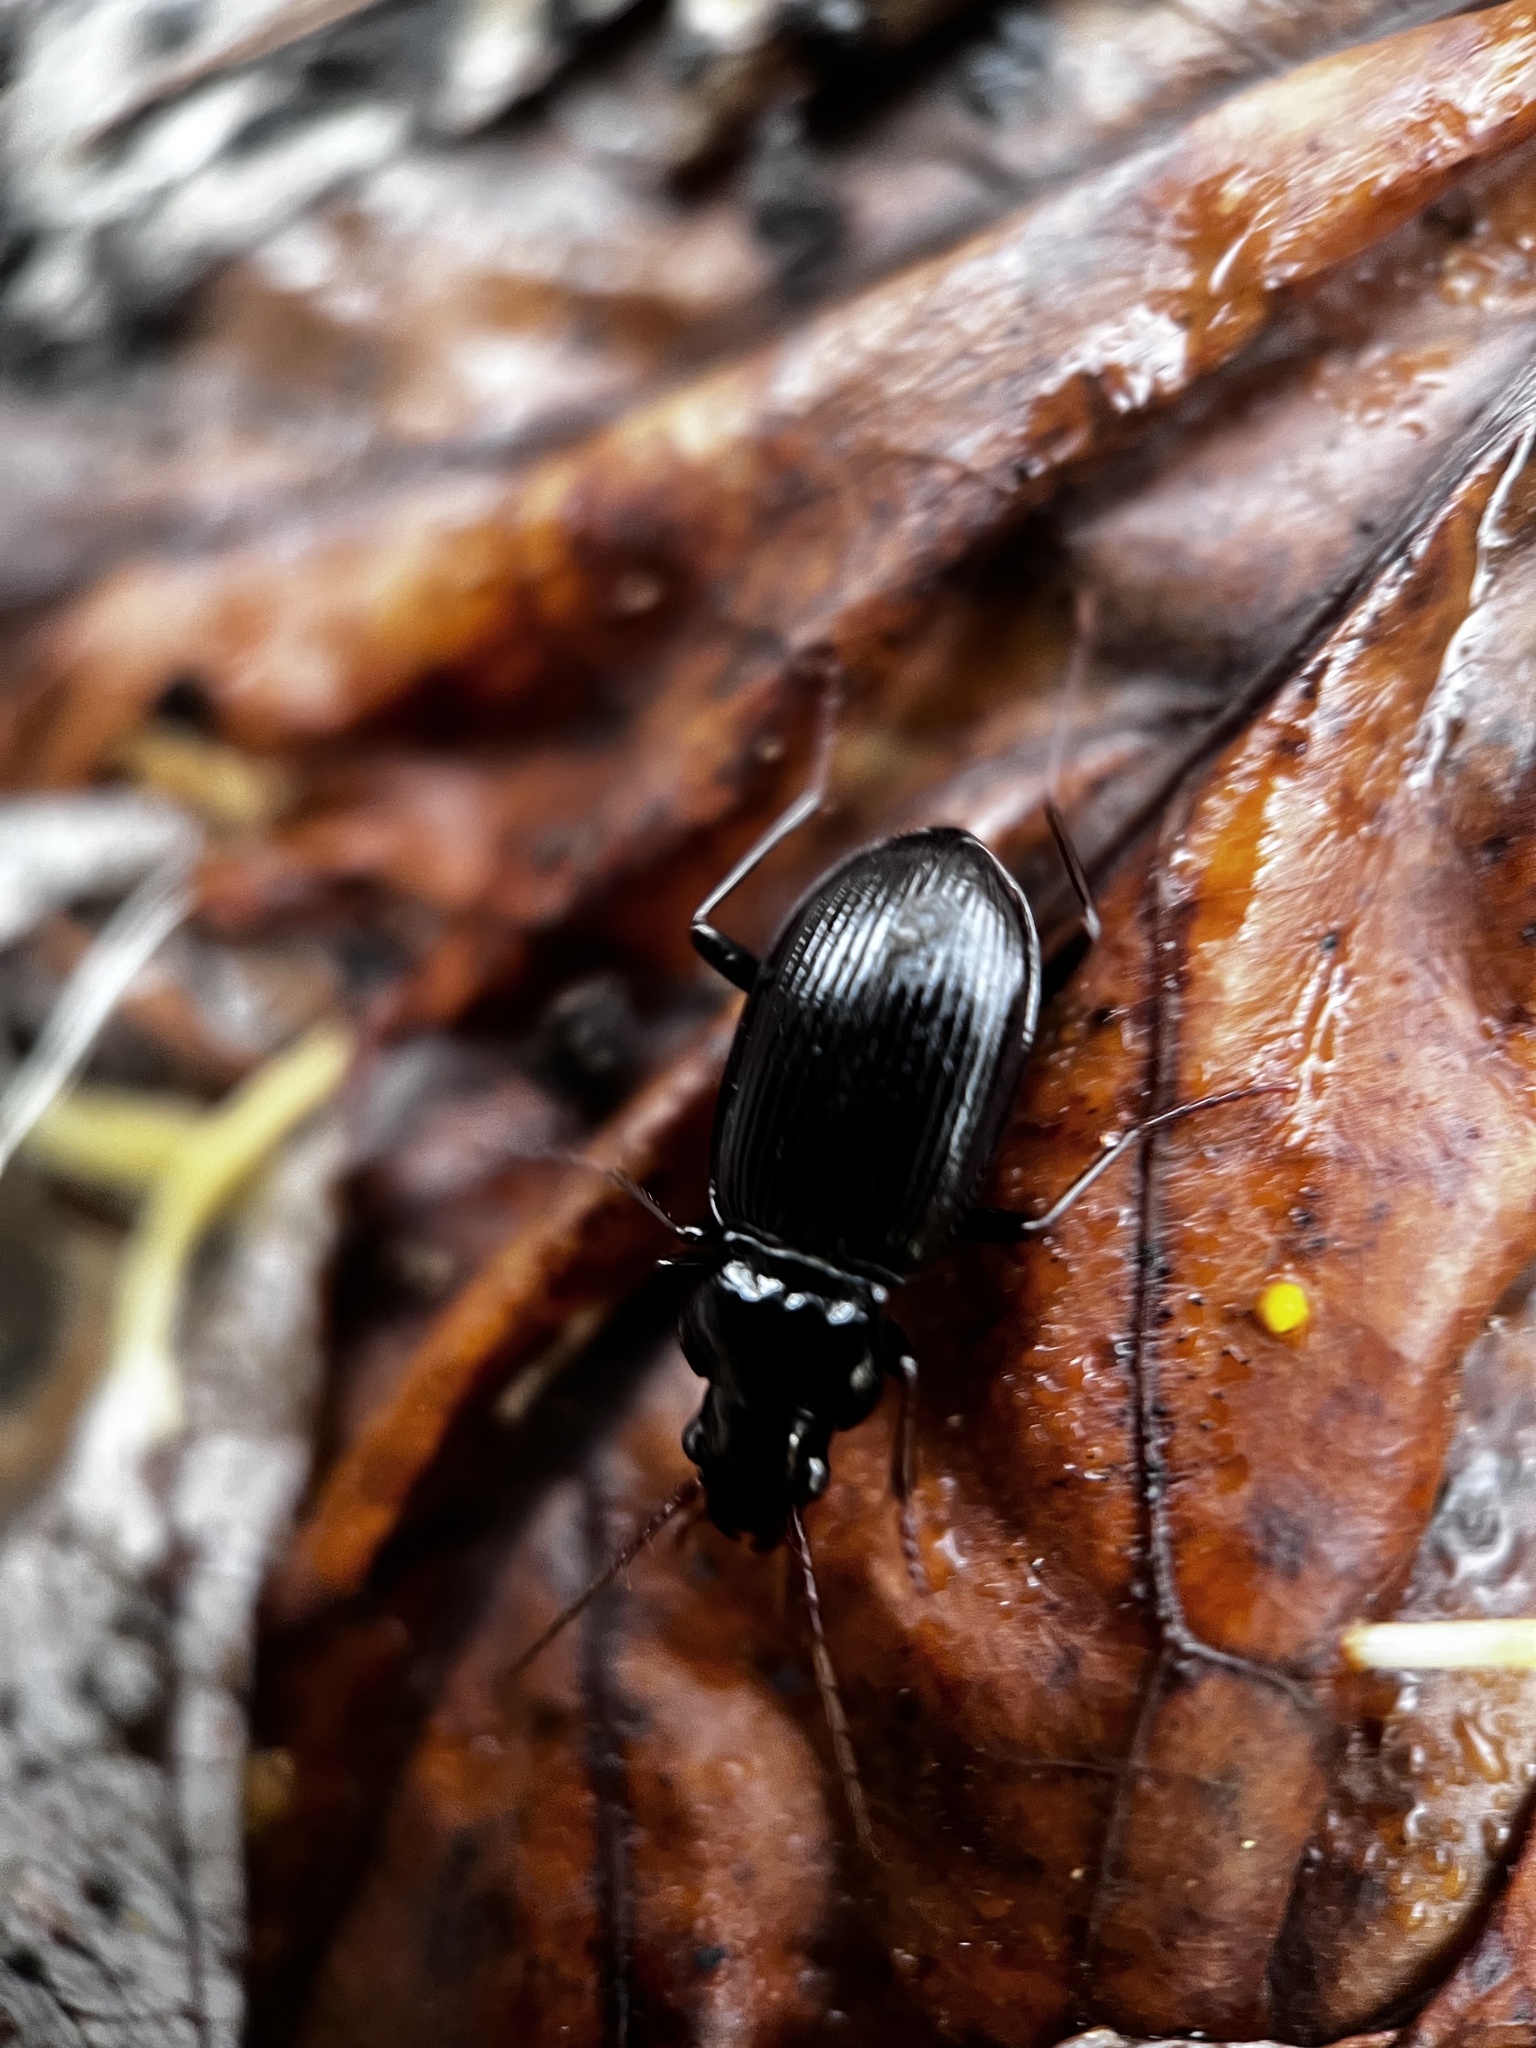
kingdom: Animalia
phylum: Arthropoda
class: Insecta
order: Coleoptera
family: Carabidae
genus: Nebria
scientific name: Nebria brevicollis
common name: Short-necked gazelle beetle
